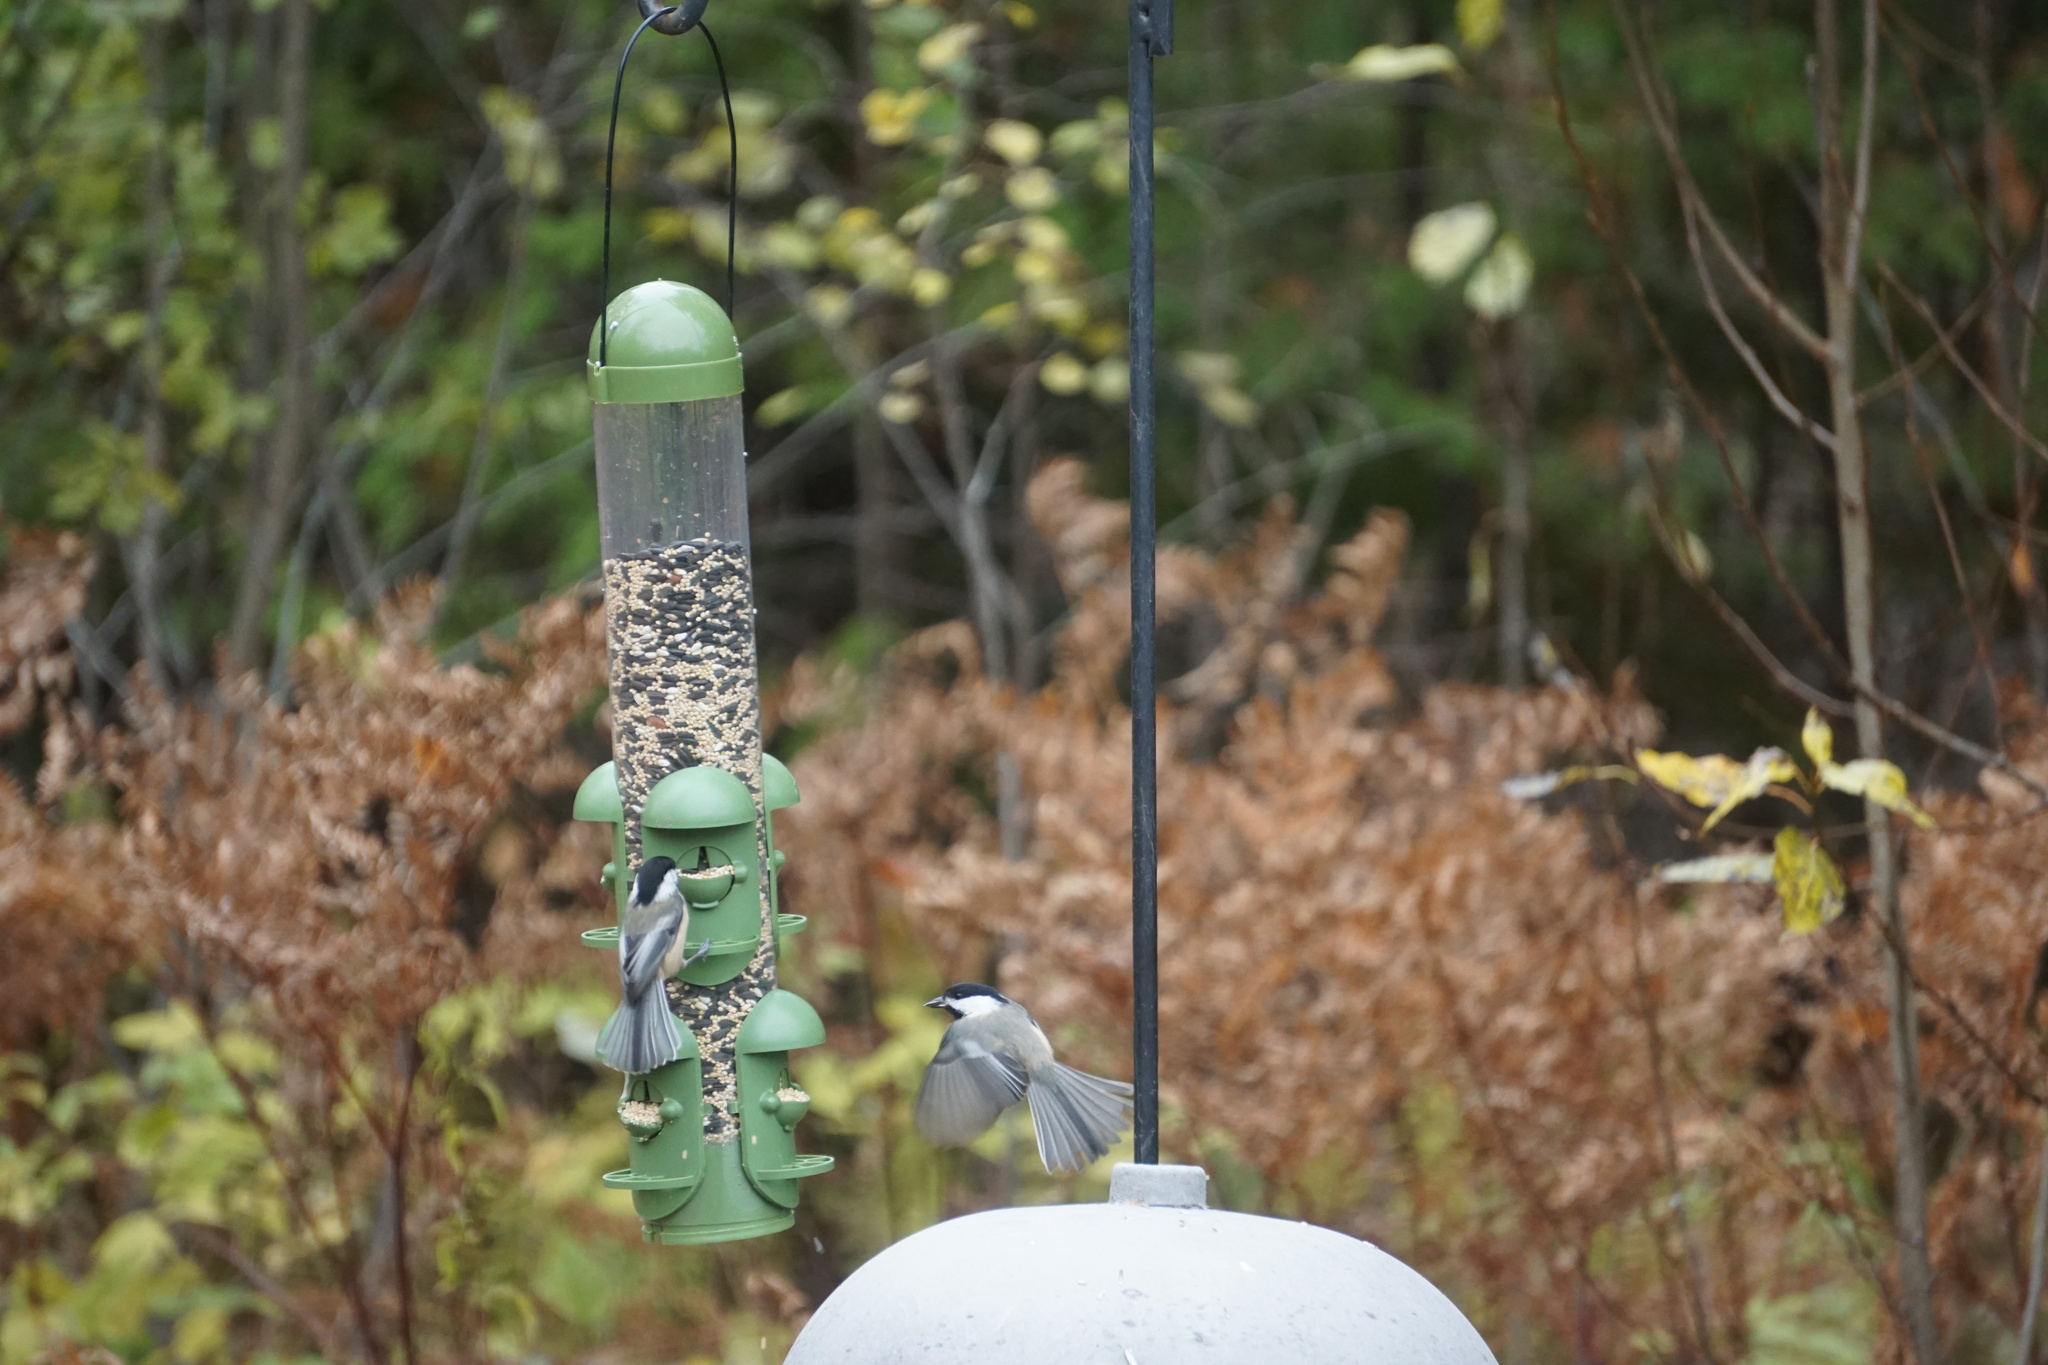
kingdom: Animalia
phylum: Chordata
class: Aves
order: Passeriformes
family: Paridae
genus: Poecile
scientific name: Poecile atricapillus
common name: Black-capped chickadee
